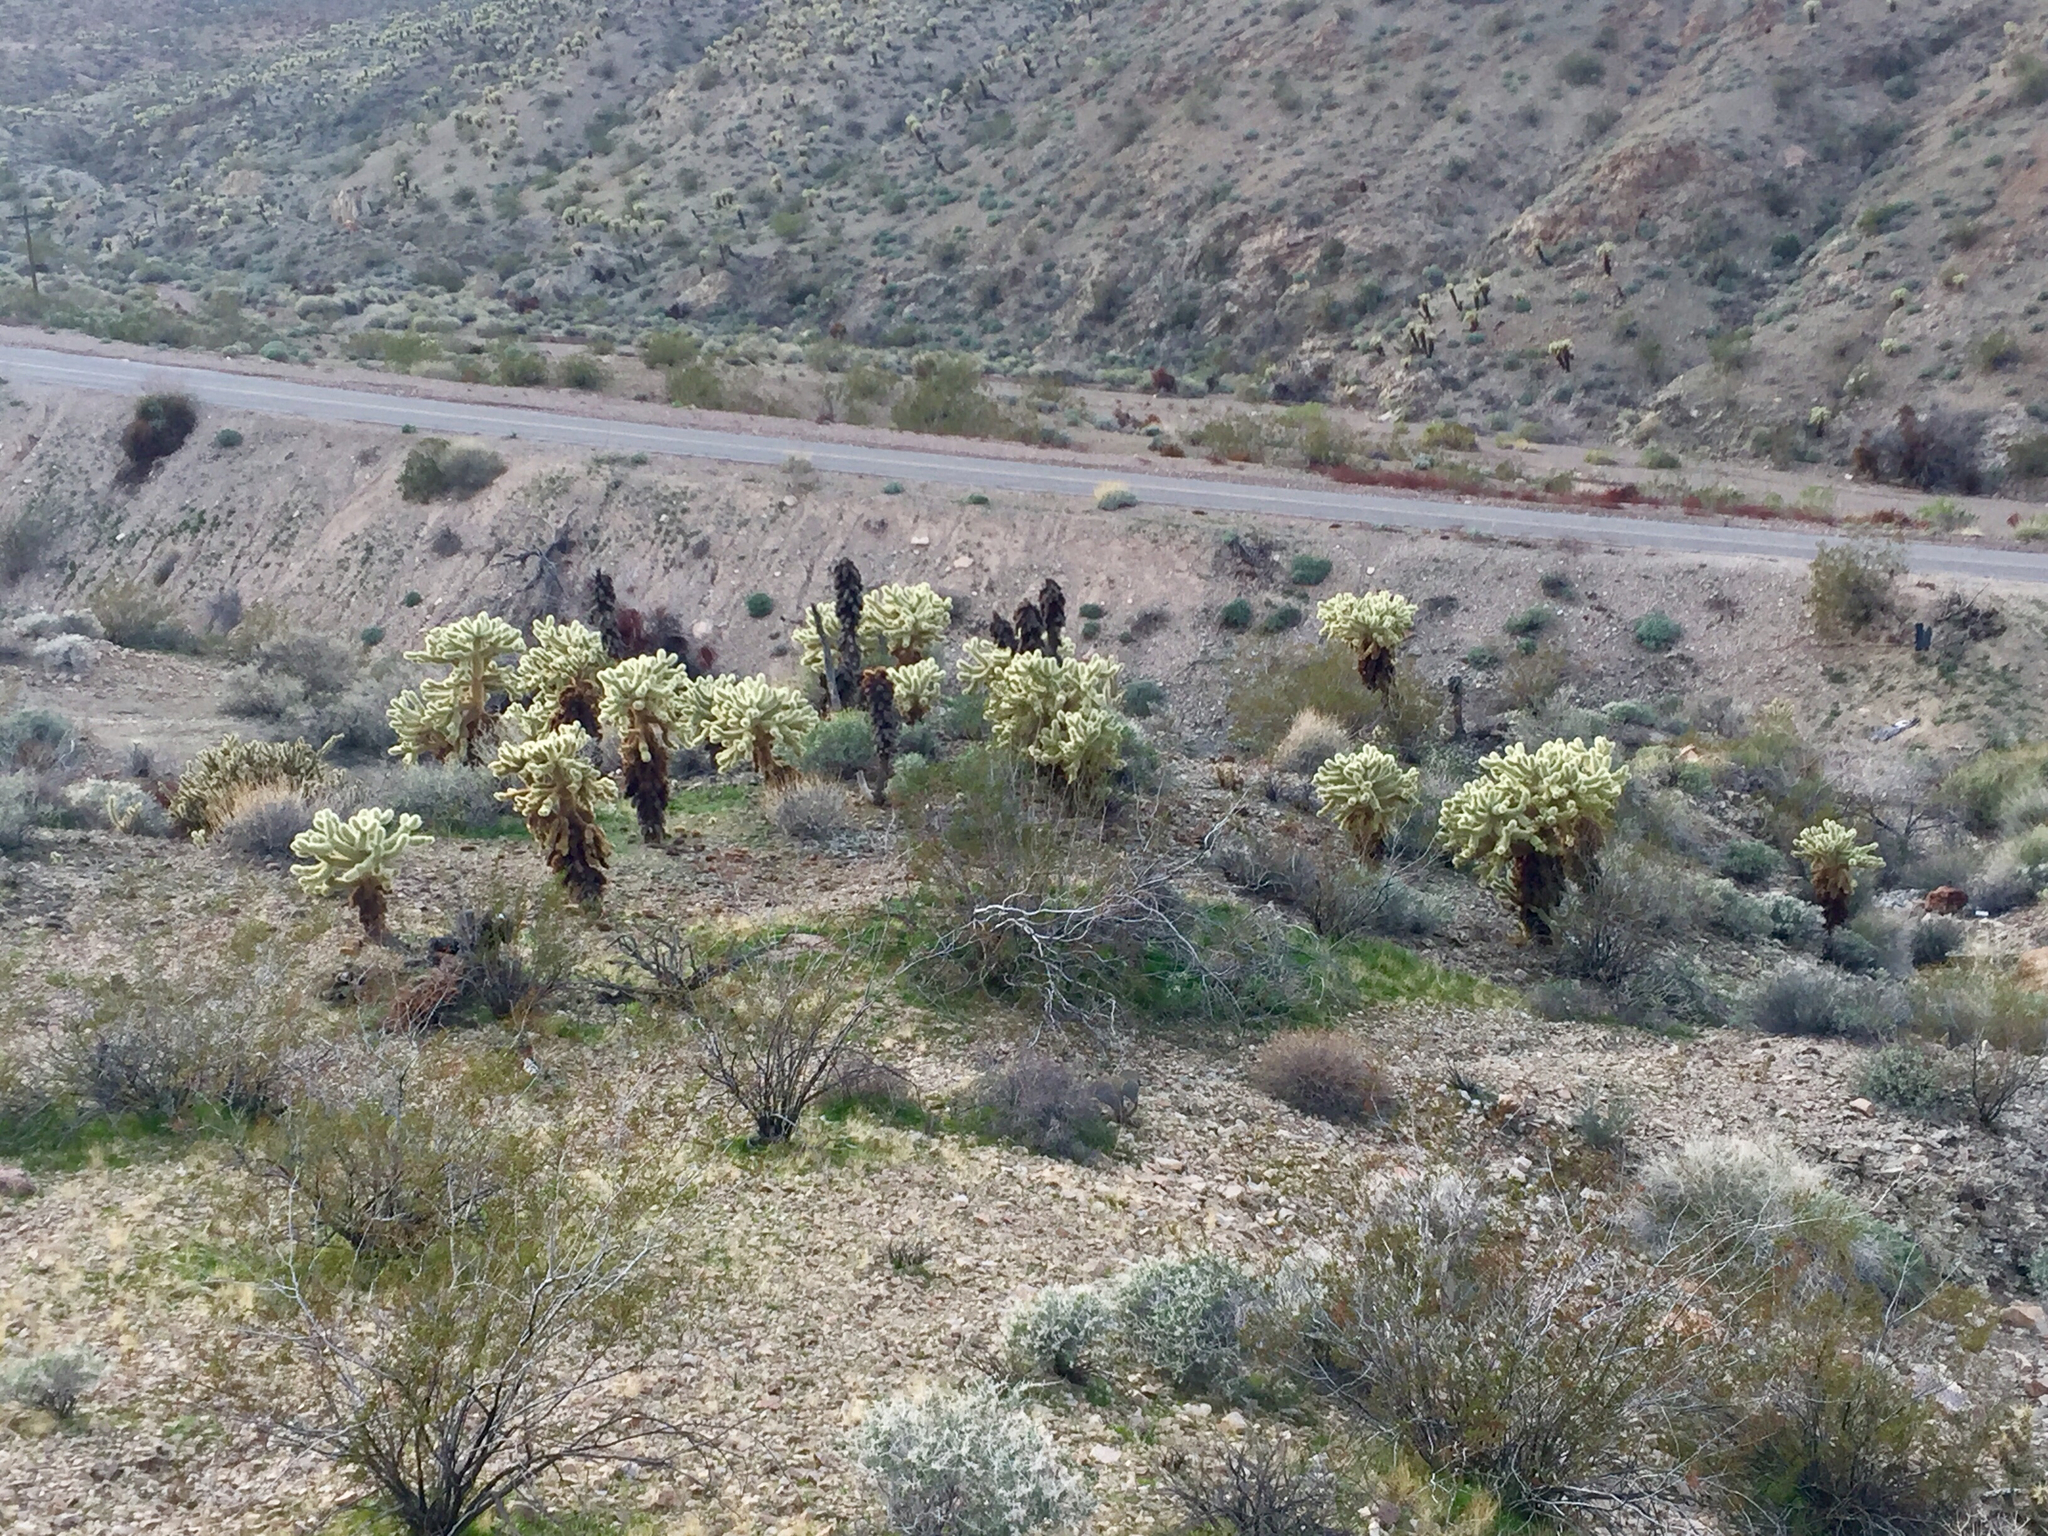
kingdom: Plantae
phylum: Tracheophyta
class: Magnoliopsida
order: Caryophyllales
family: Cactaceae
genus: Cylindropuntia
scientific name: Cylindropuntia fosbergii
